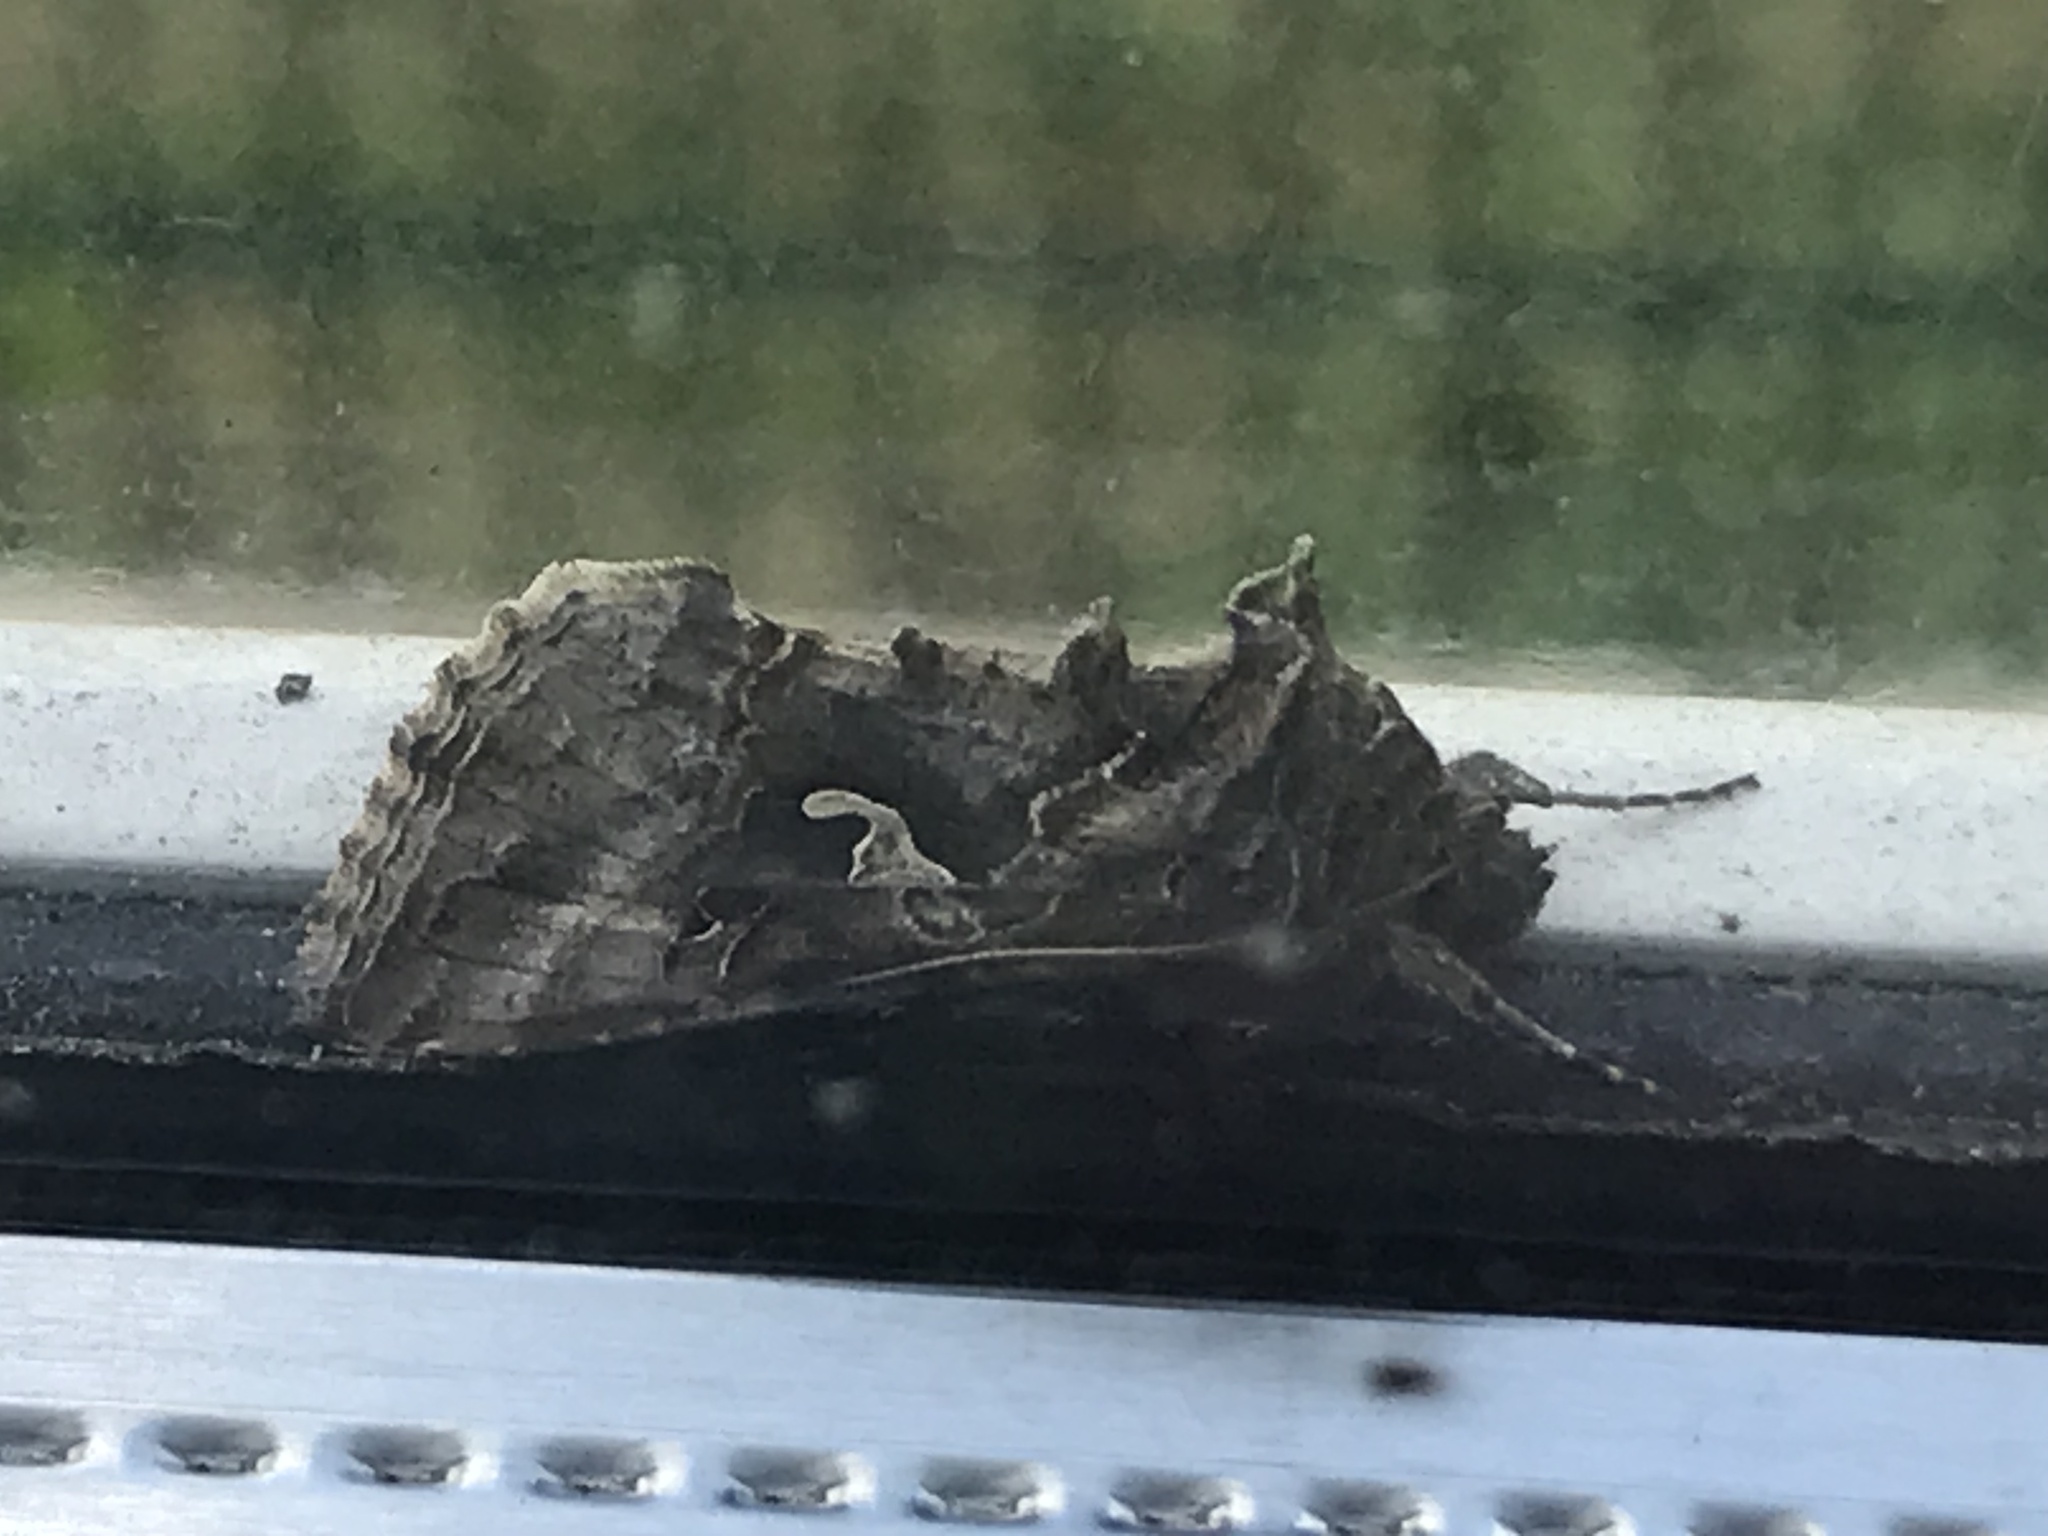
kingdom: Animalia
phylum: Arthropoda
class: Insecta
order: Lepidoptera
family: Noctuidae
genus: Autographa
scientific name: Autographa gamma
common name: Silver y
